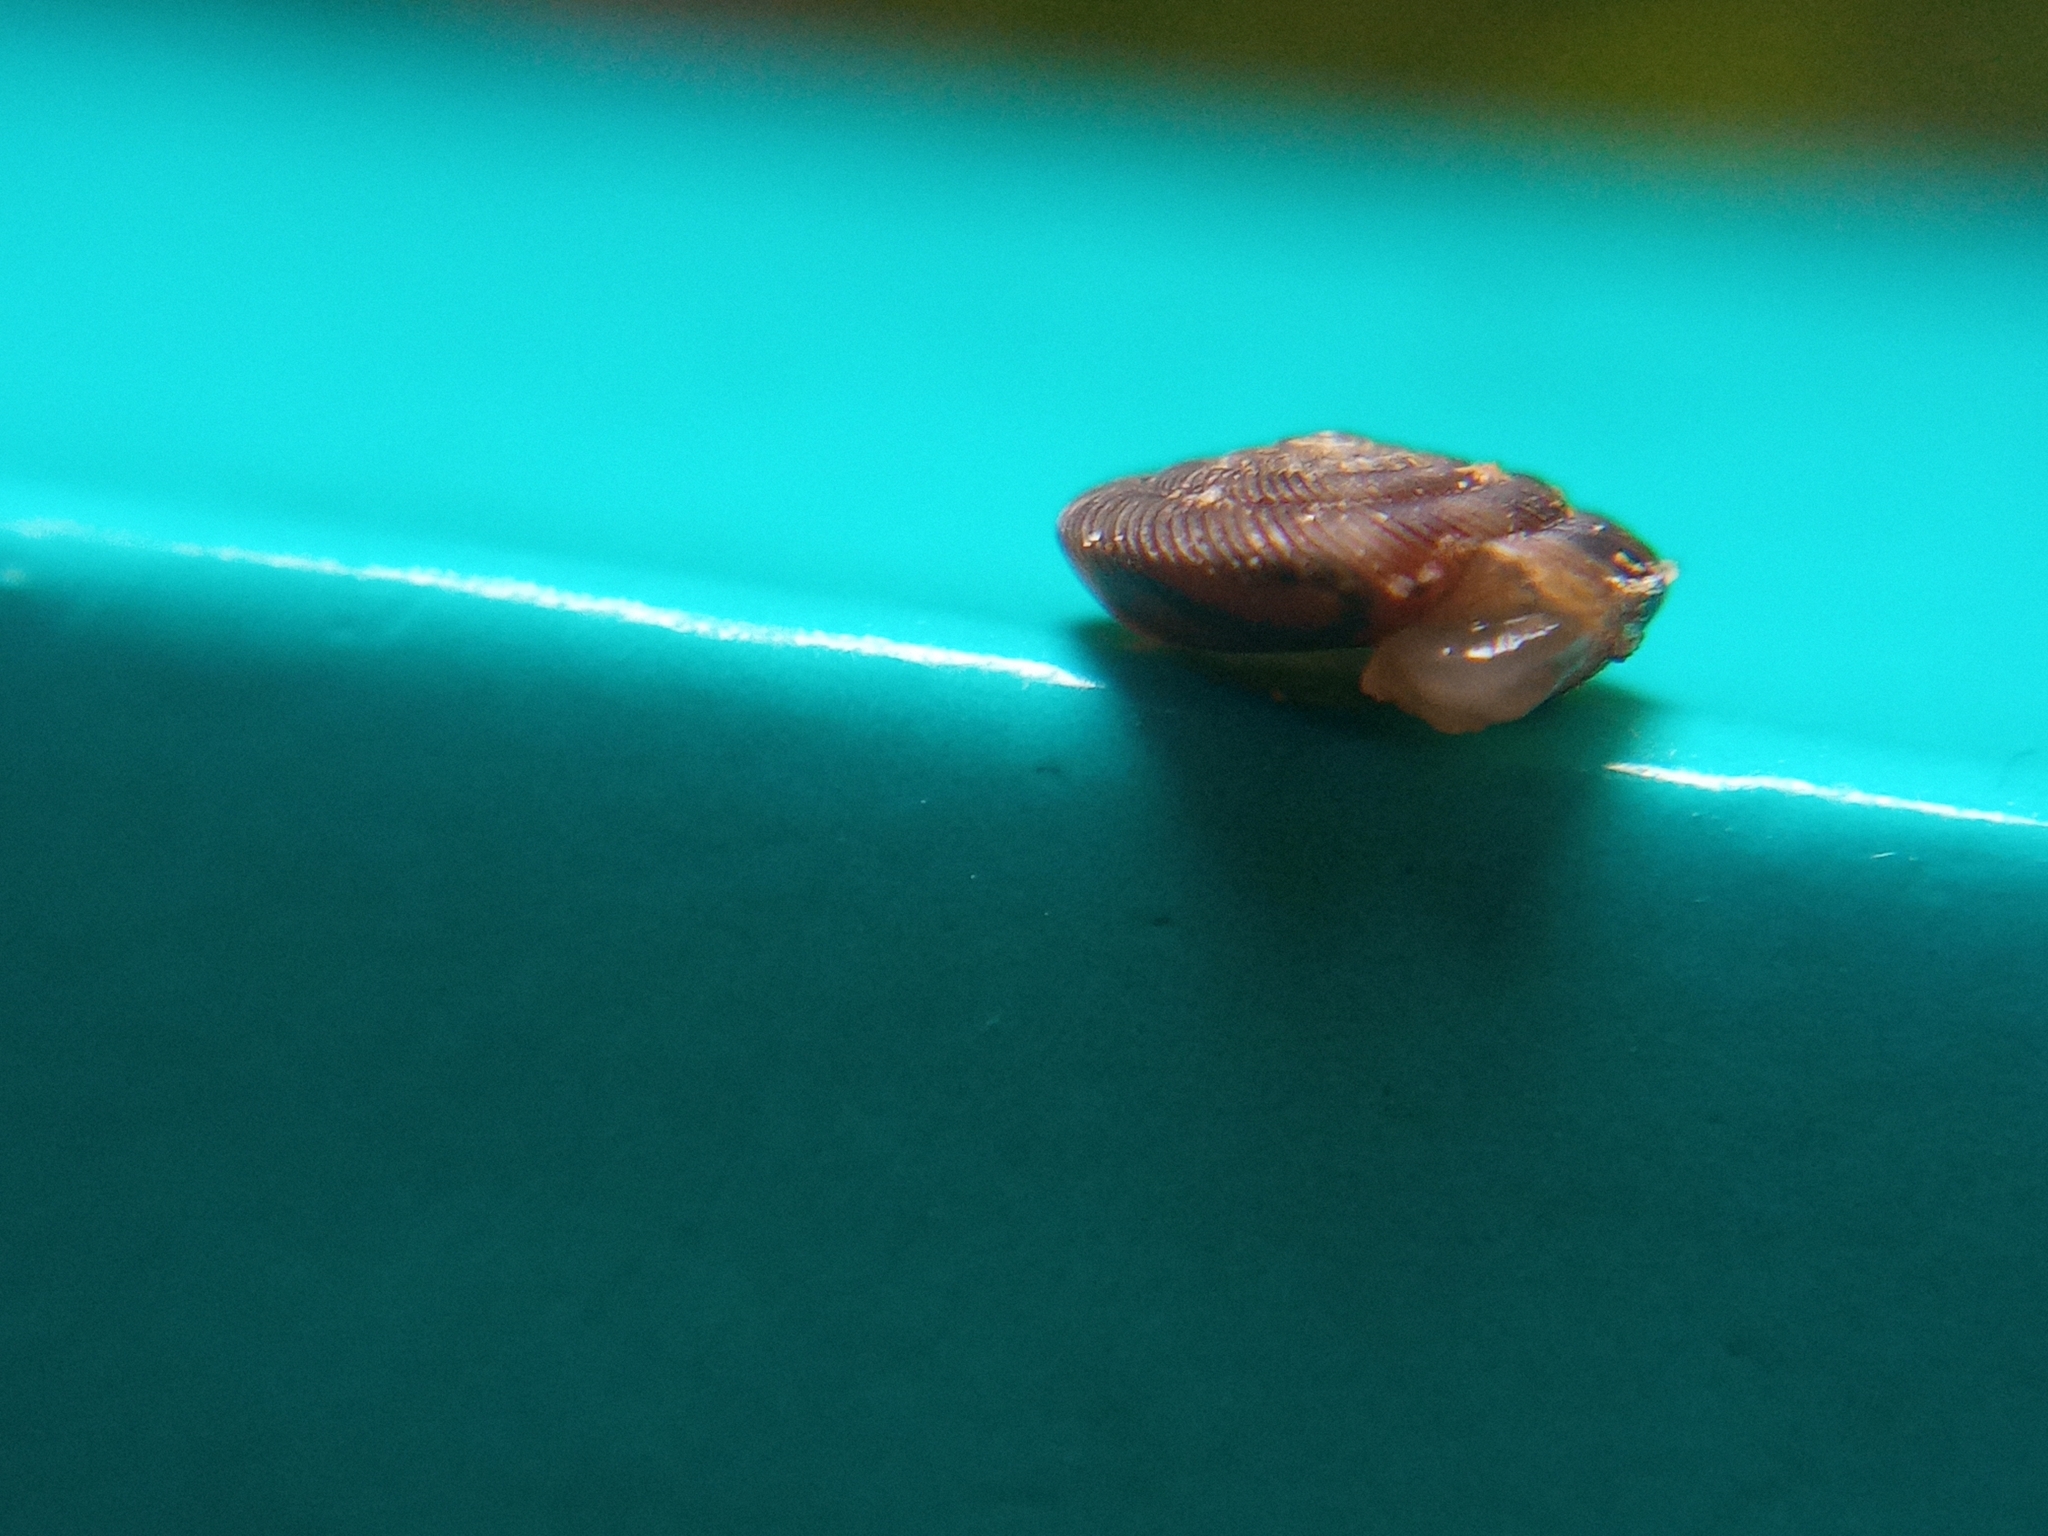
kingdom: Animalia
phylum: Mollusca
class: Gastropoda
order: Stylommatophora
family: Discidae
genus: Discus
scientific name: Discus rotundatus
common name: Rounded snail
